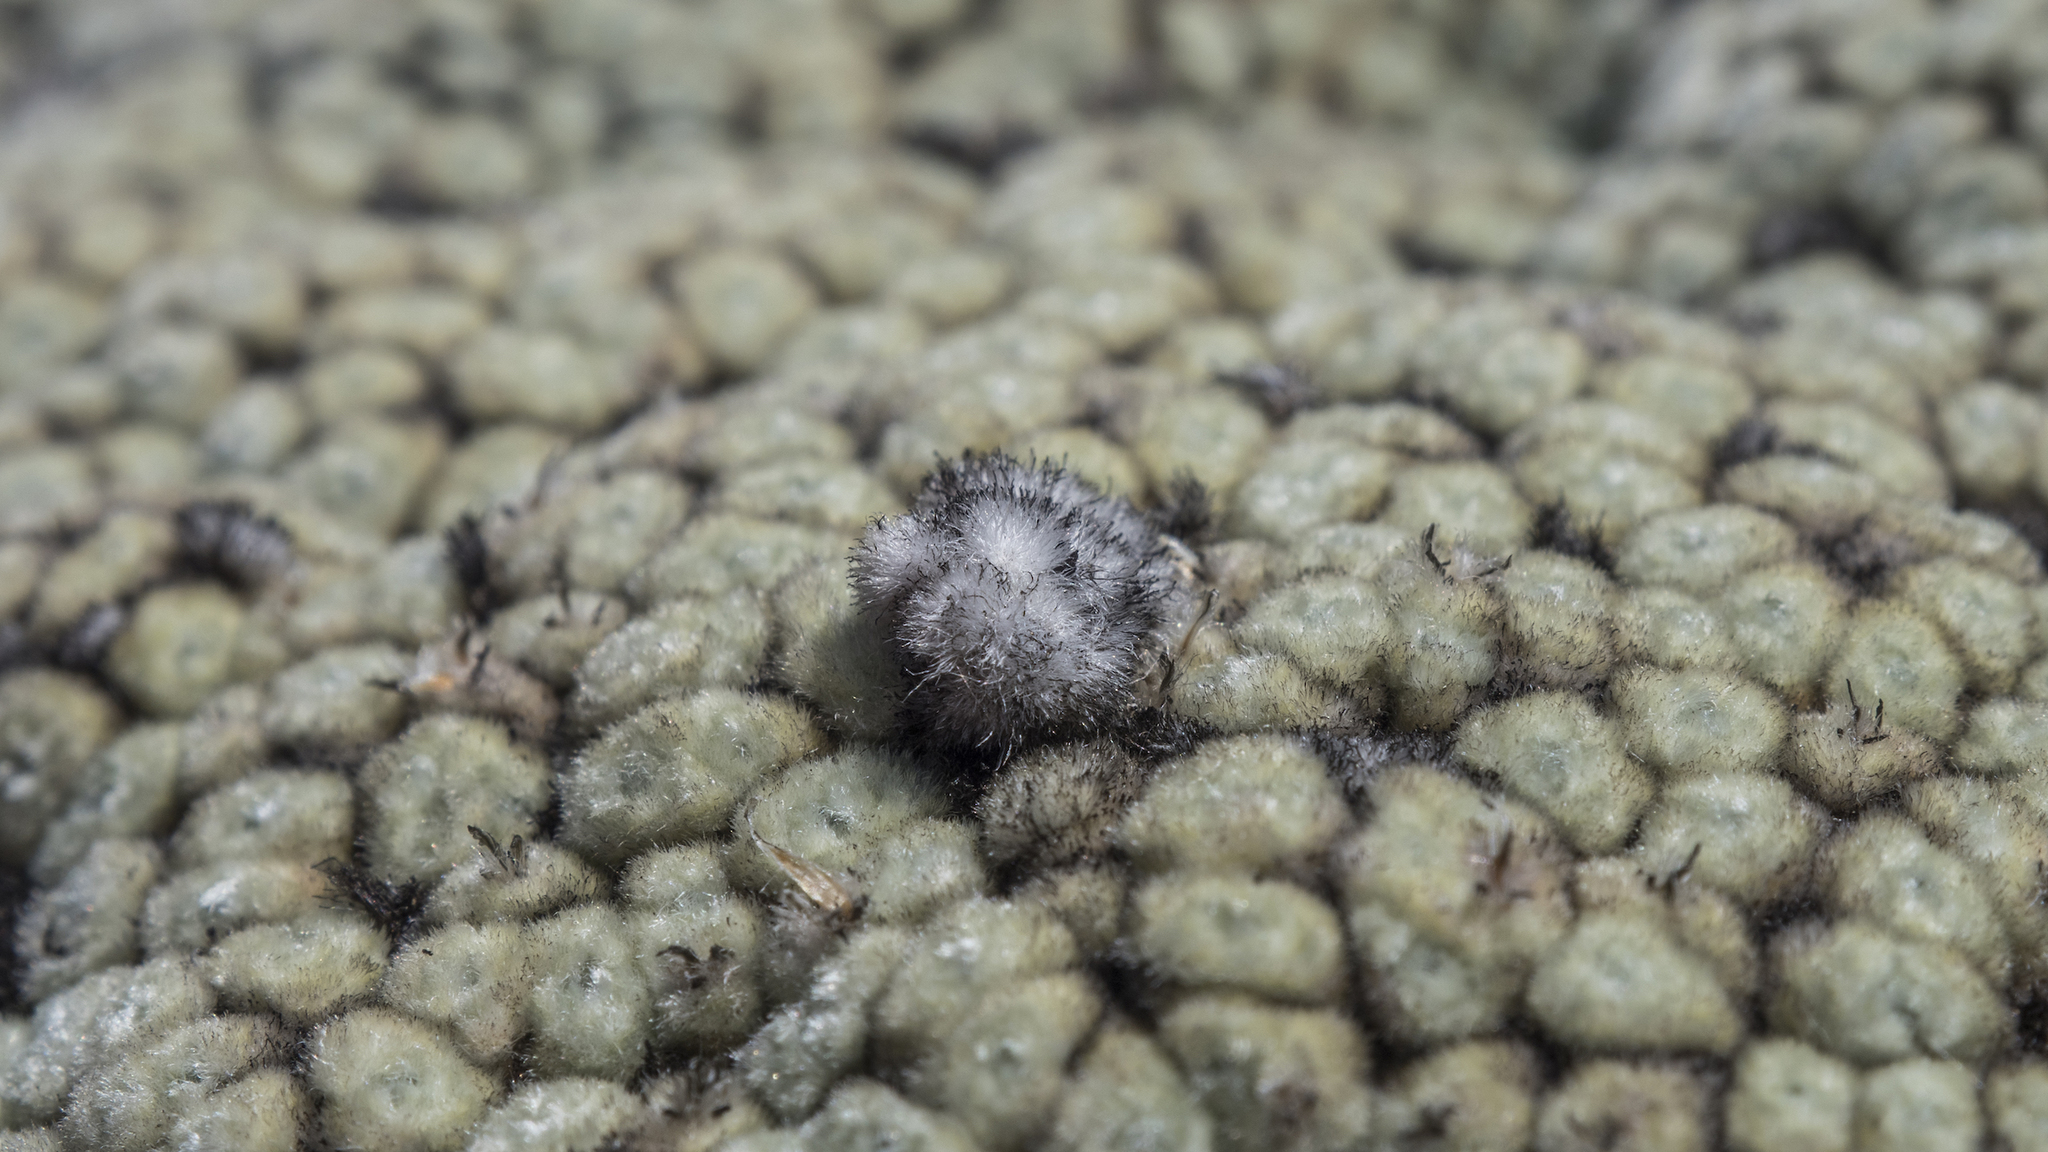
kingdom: Plantae
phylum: Tracheophyta
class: Magnoliopsida
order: Asterales
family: Asteraceae
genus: Raoulia
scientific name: Raoulia eximia
